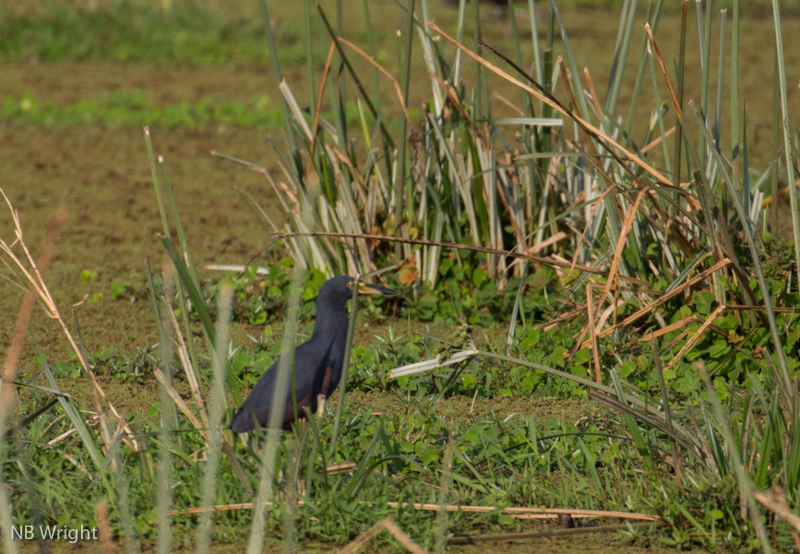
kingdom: Animalia
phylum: Chordata
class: Aves
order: Pelecaniformes
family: Ardeidae
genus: Ardeola
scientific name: Ardeola rufiventris
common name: Rufous-bellied heron
